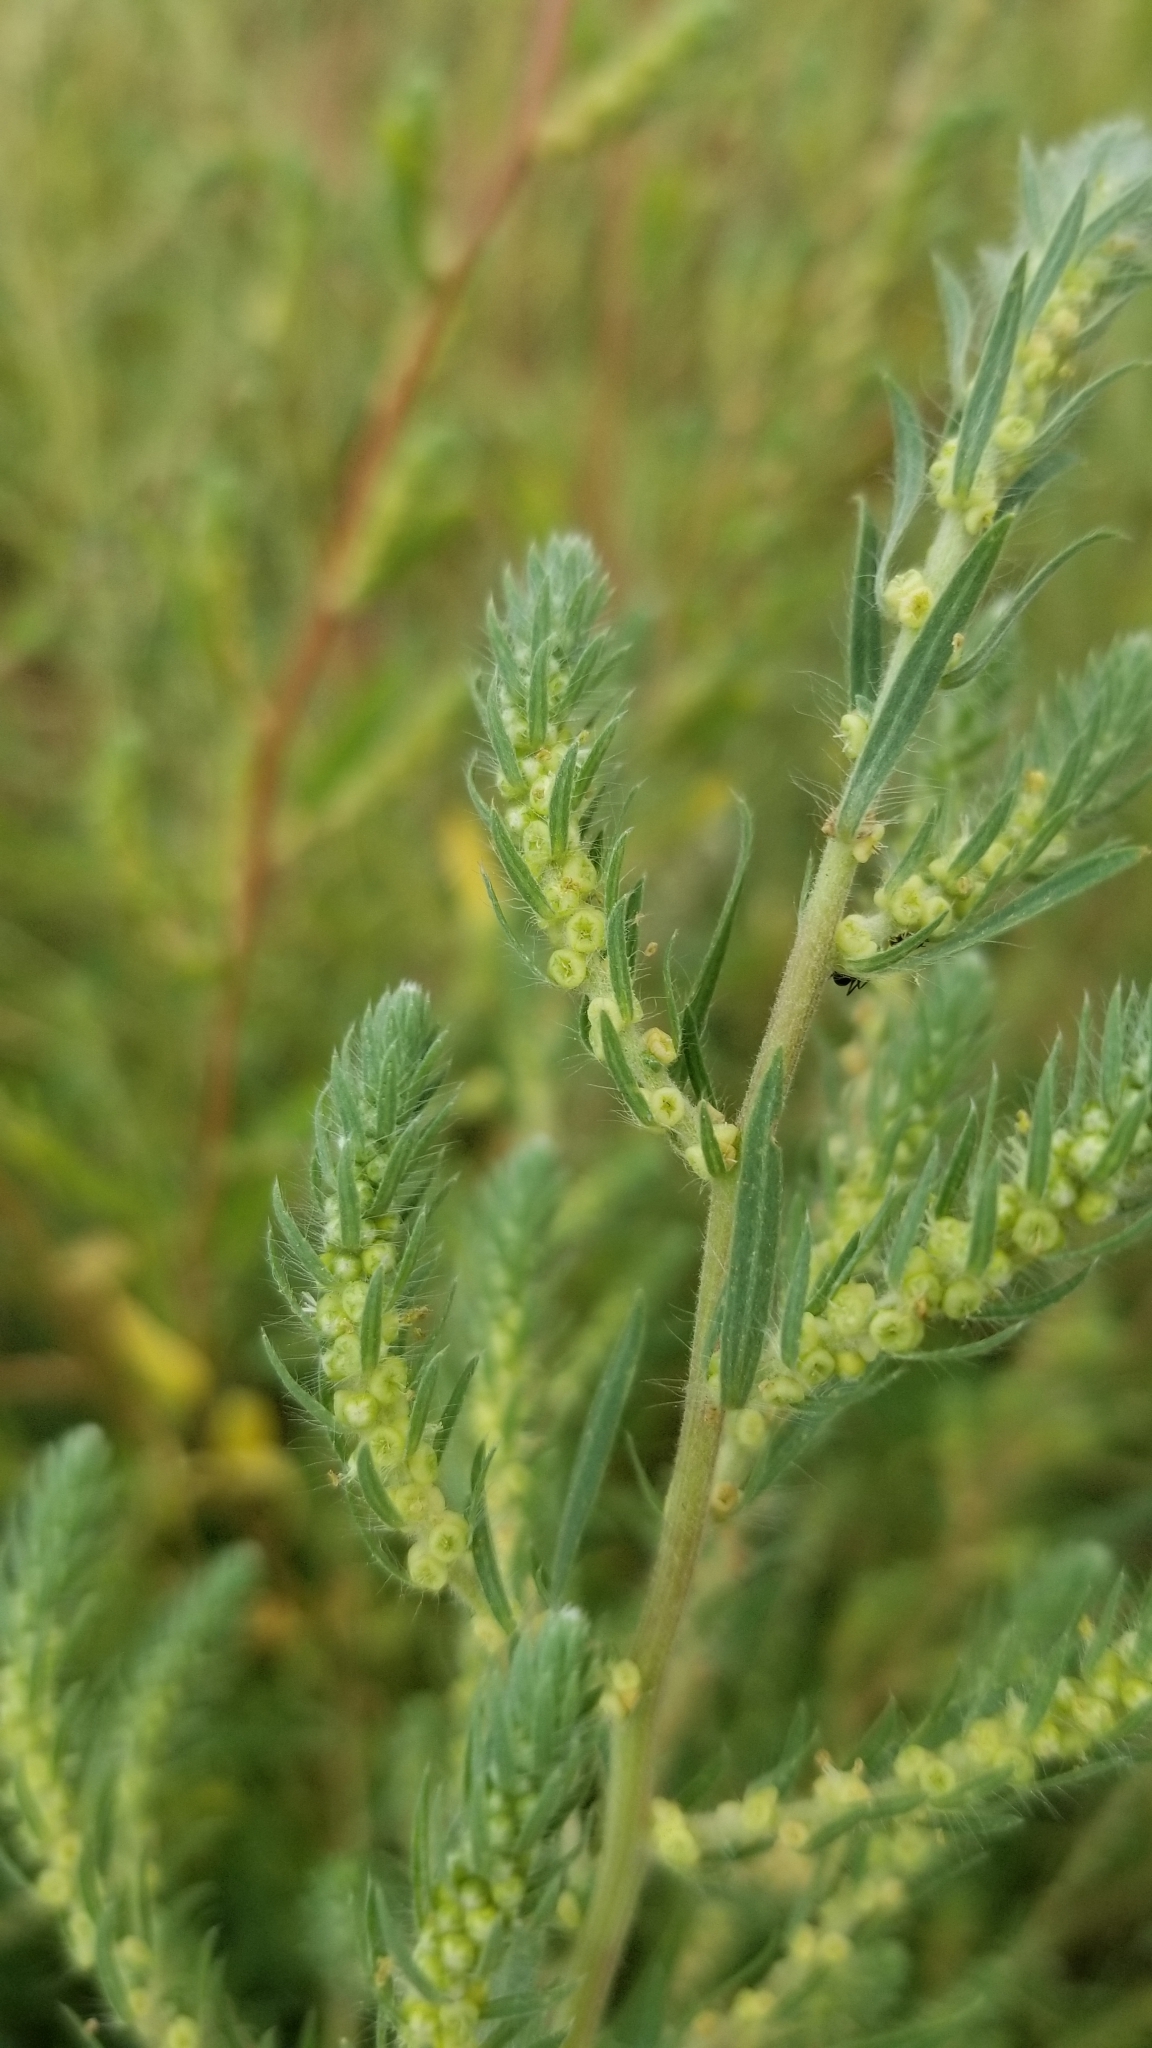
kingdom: Plantae
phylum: Tracheophyta
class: Magnoliopsida
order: Caryophyllales
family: Amaranthaceae
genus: Bassia
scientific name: Bassia scoparia
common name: Belvedere
